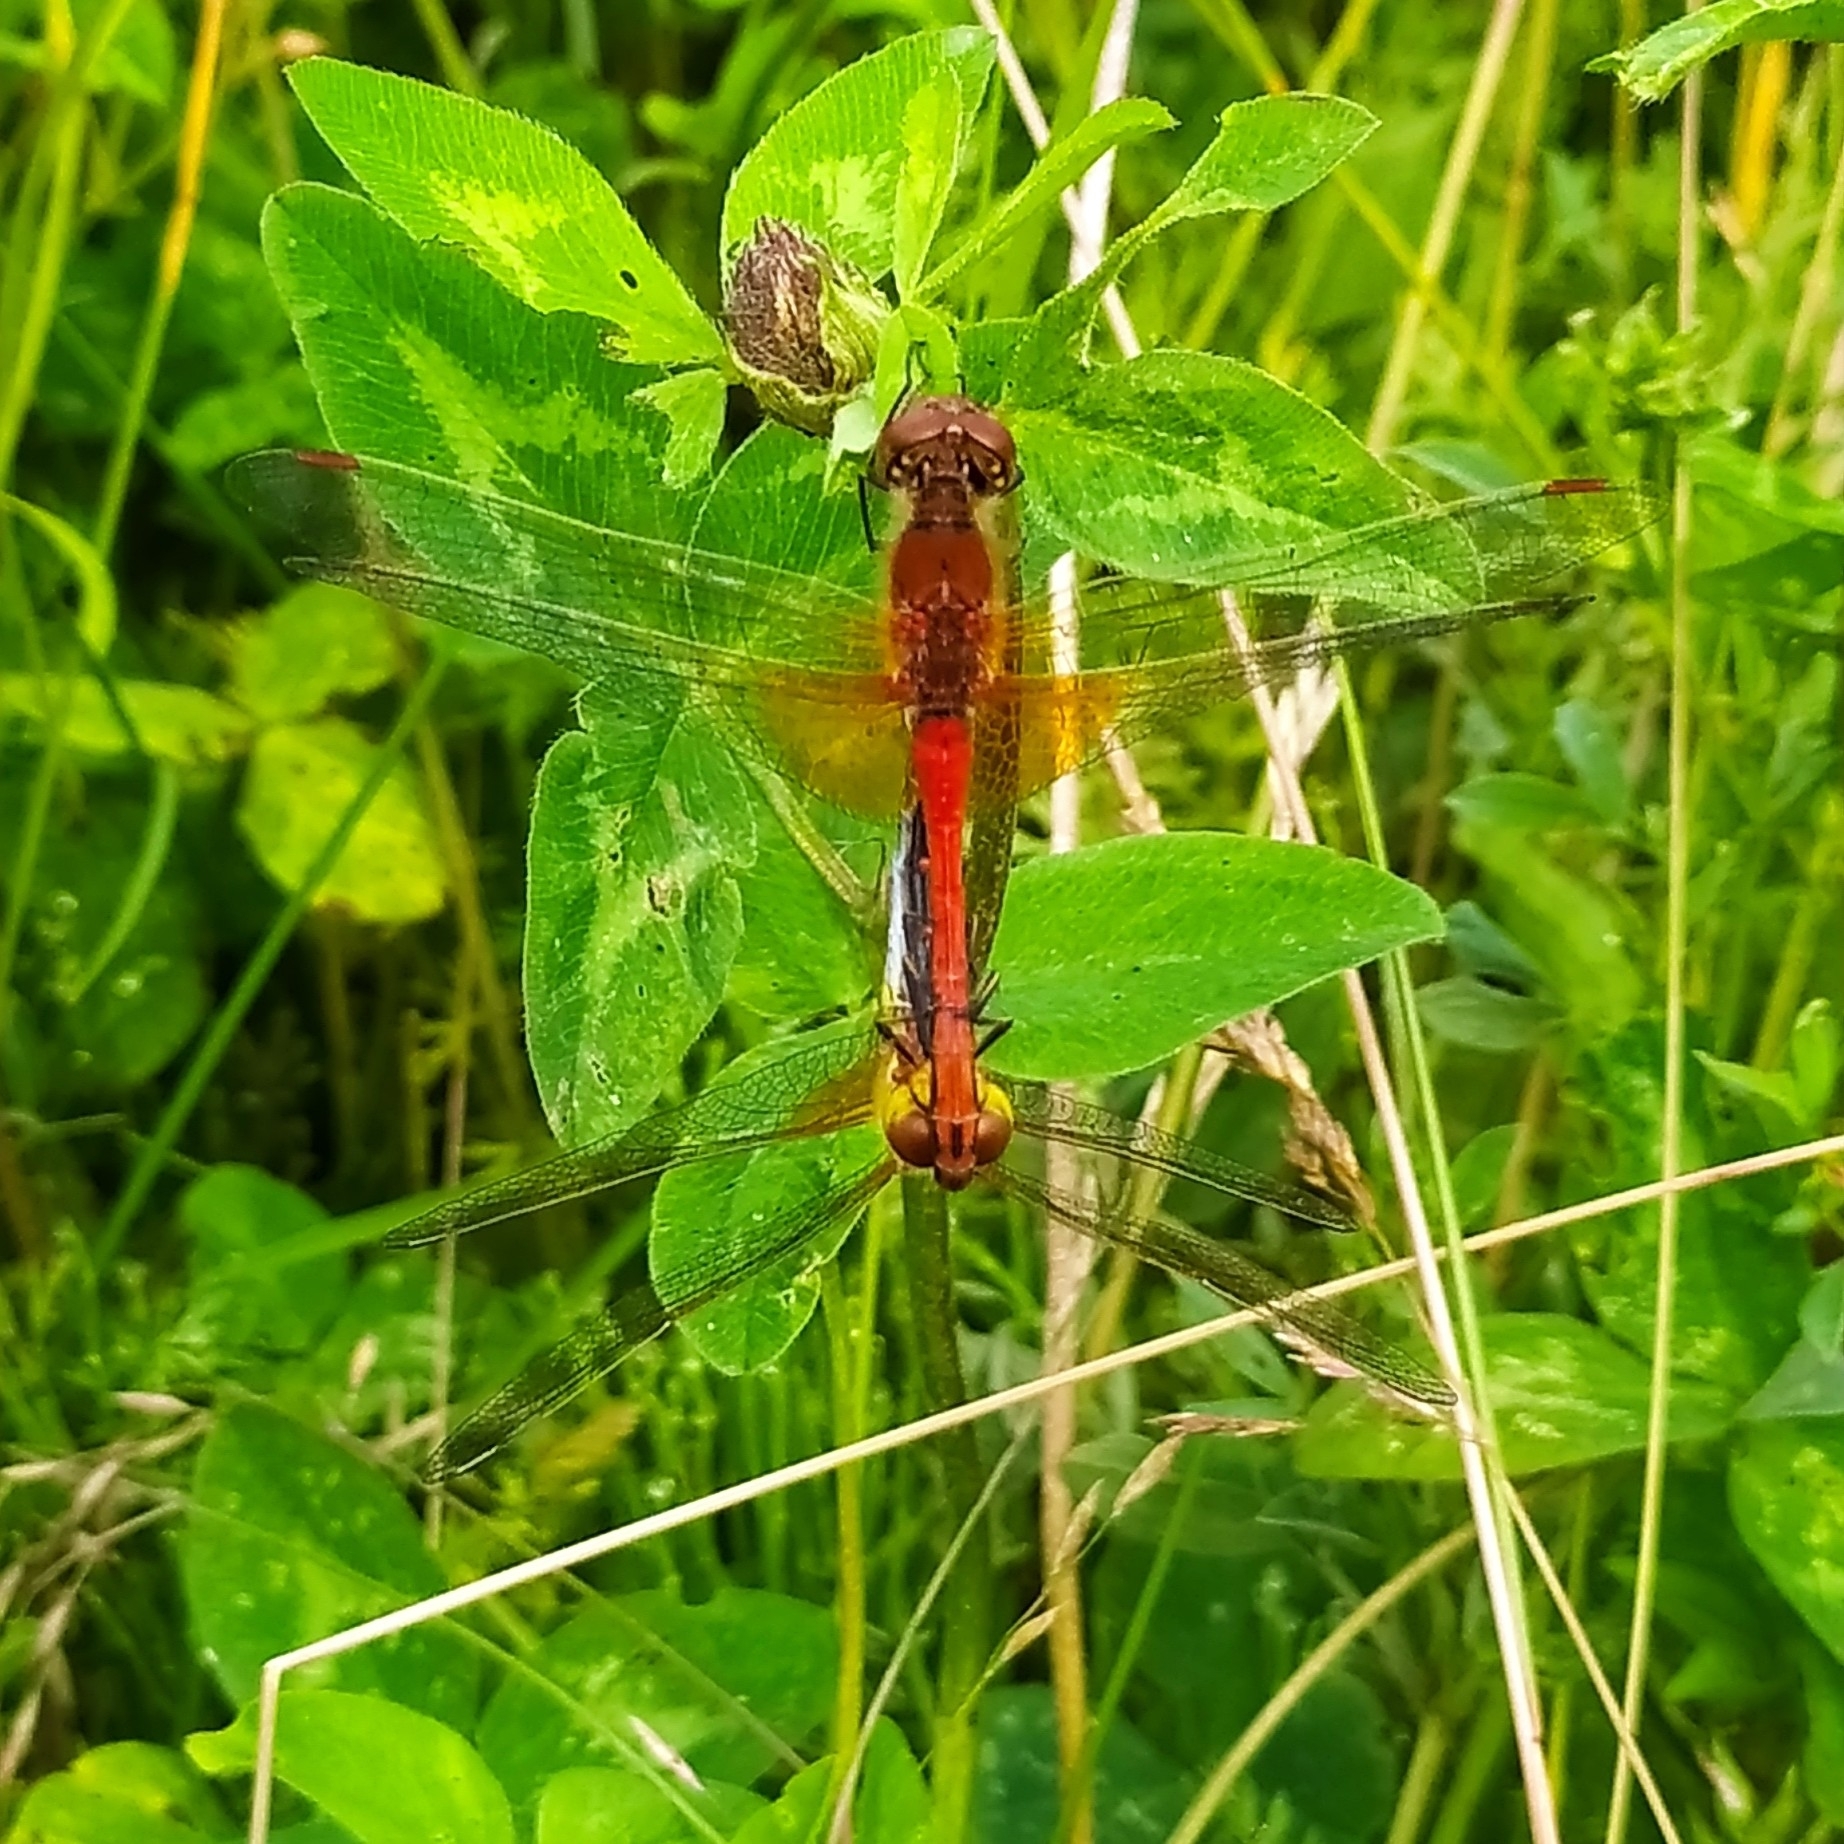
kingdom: Animalia
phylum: Arthropoda
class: Insecta
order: Odonata
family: Libellulidae
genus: Sympetrum
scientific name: Sympetrum flaveolum
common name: Yellow-winged darter
